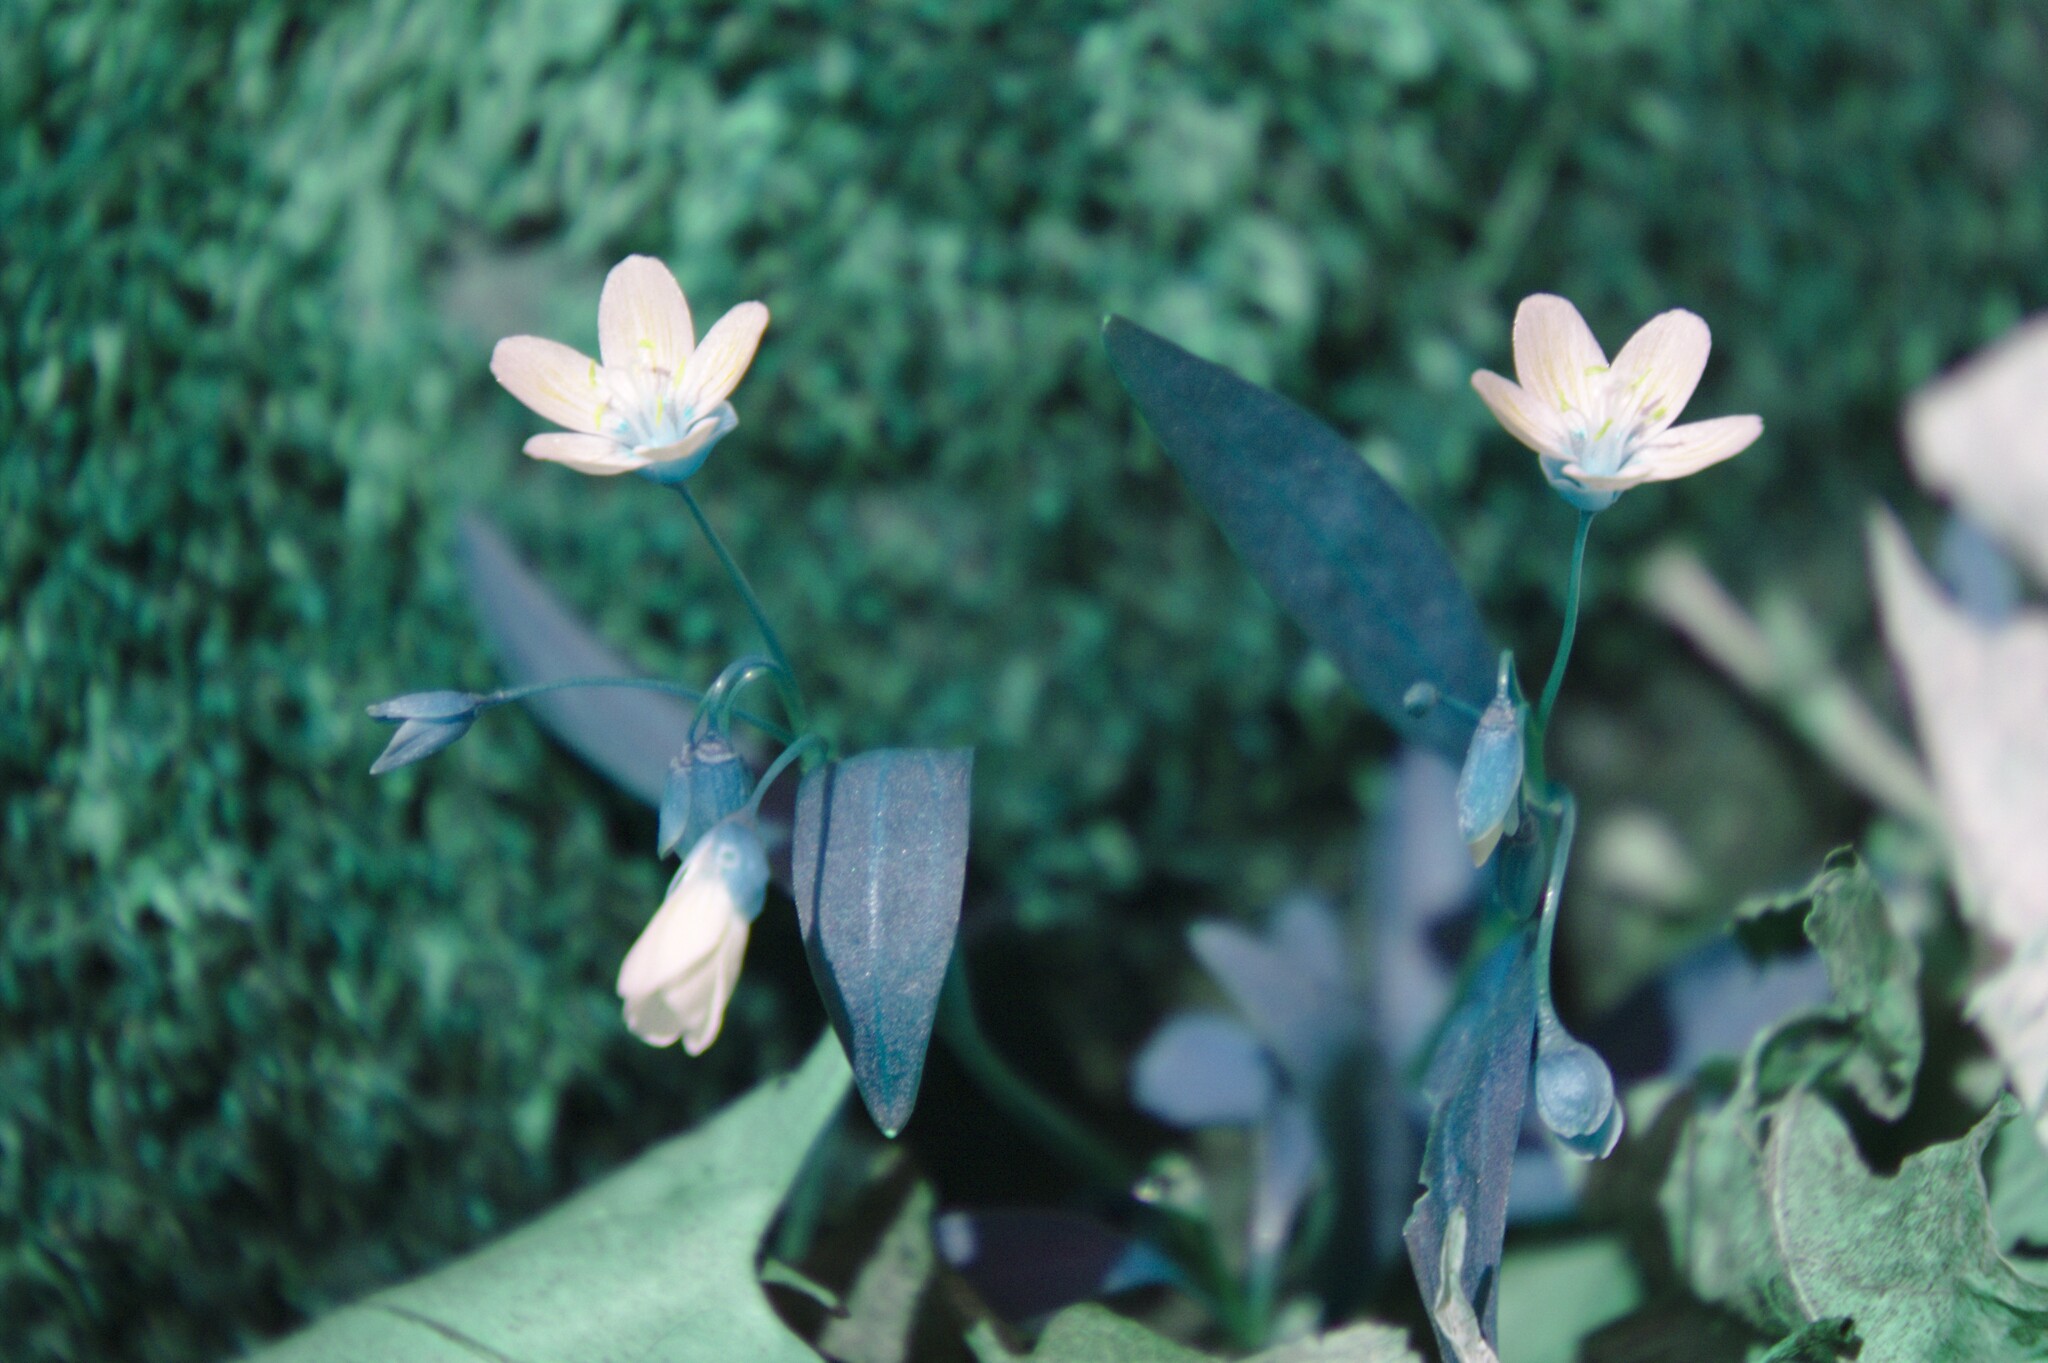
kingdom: Plantae
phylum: Tracheophyta
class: Magnoliopsida
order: Caryophyllales
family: Montiaceae
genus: Claytonia
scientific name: Claytonia caroliniana
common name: Carolina spring beauty
